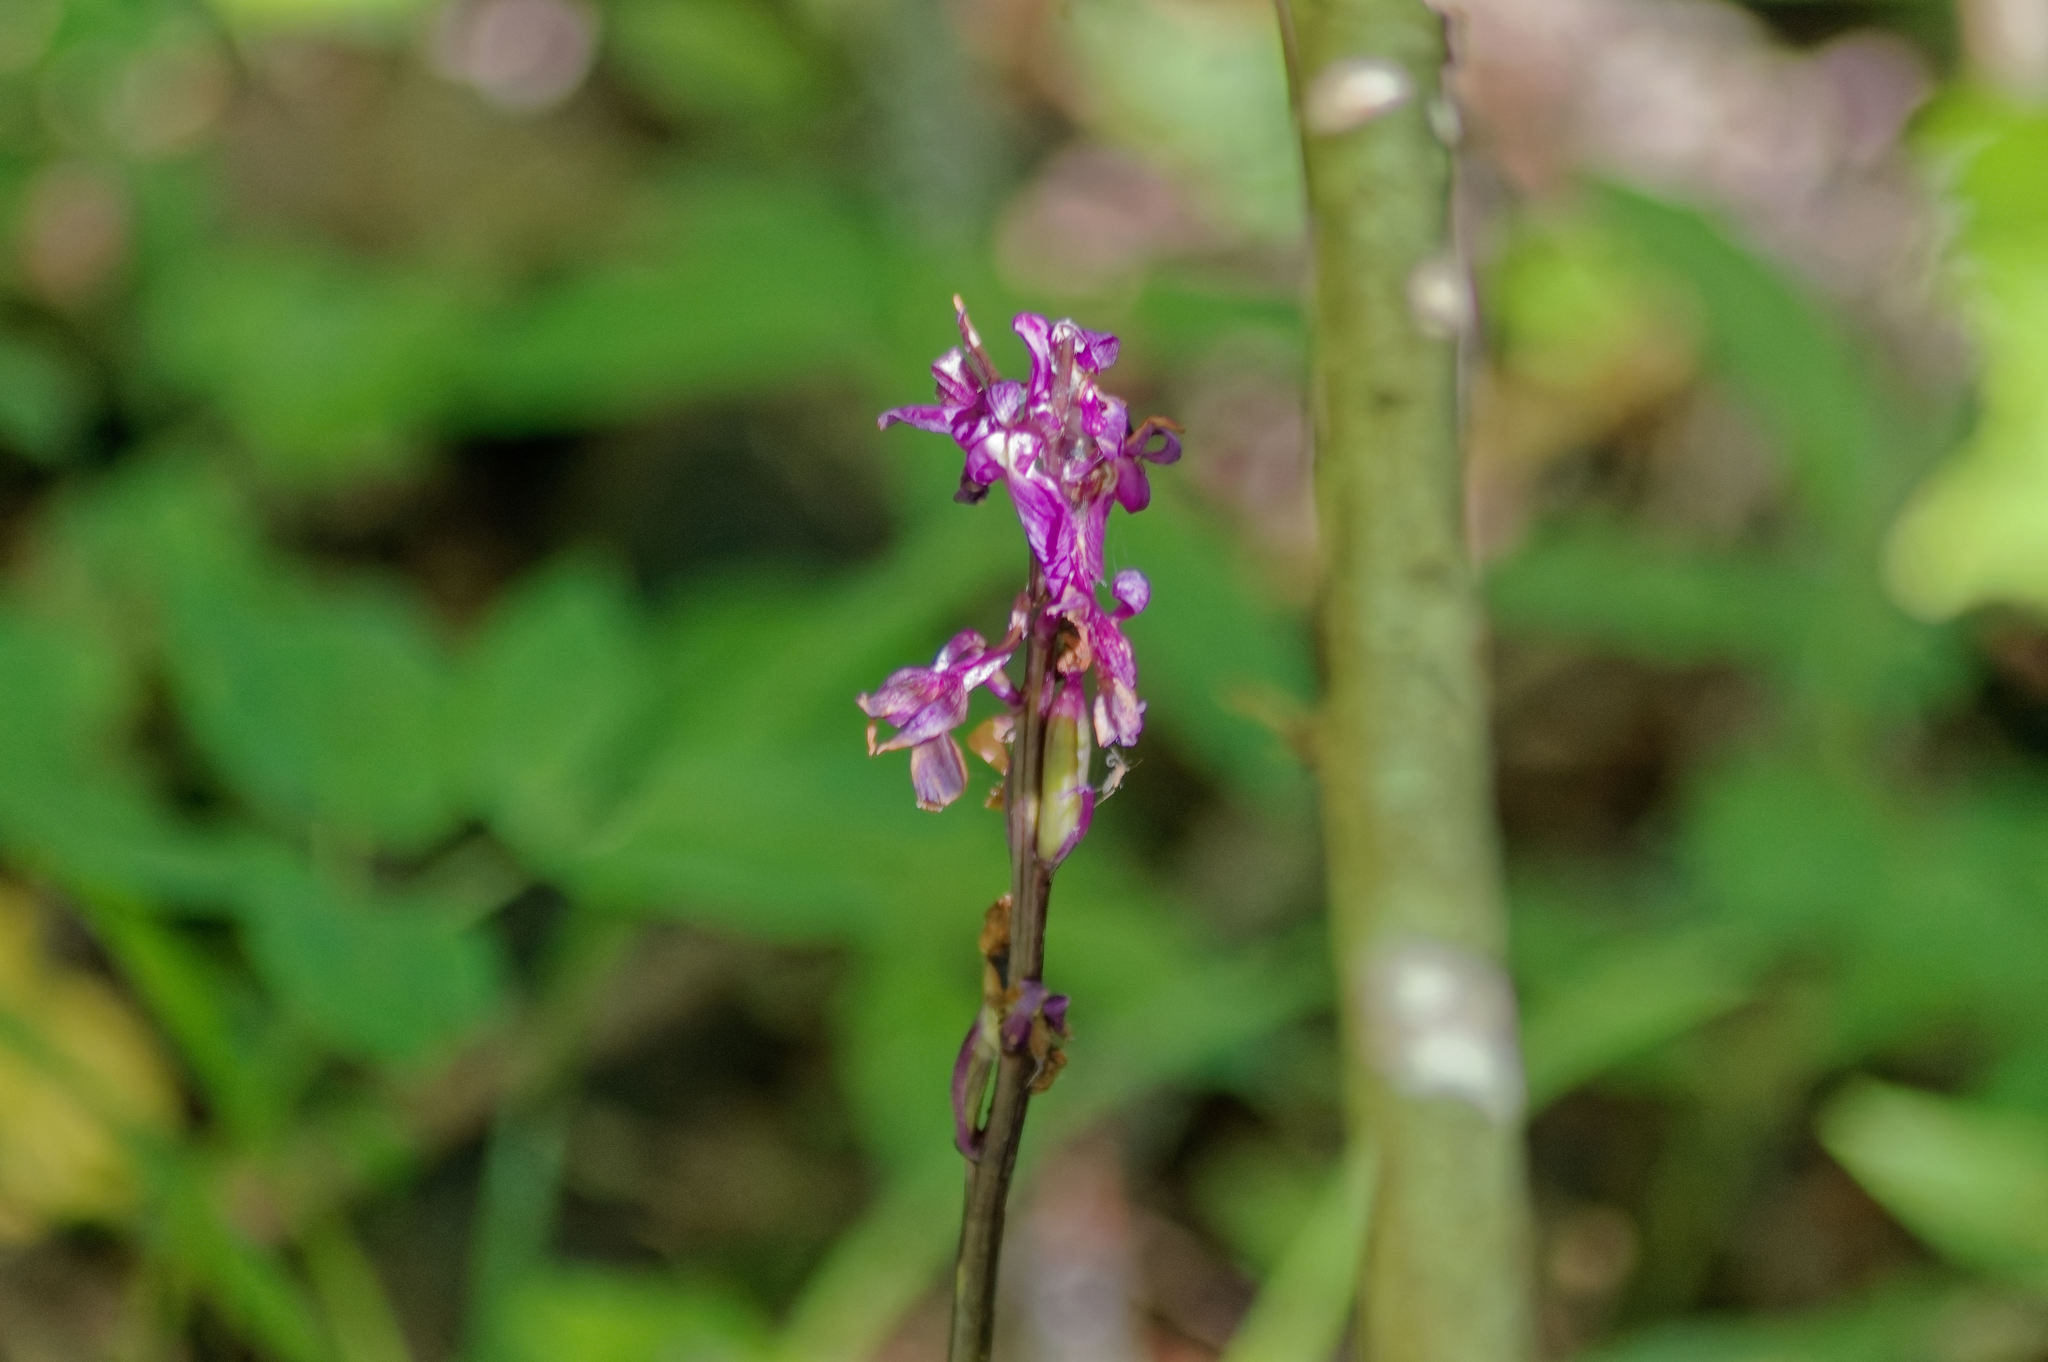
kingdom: Plantae
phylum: Tracheophyta
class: Liliopsida
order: Asparagales
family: Orchidaceae
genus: Orchis
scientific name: Orchis mascula
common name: Early-purple orchid
